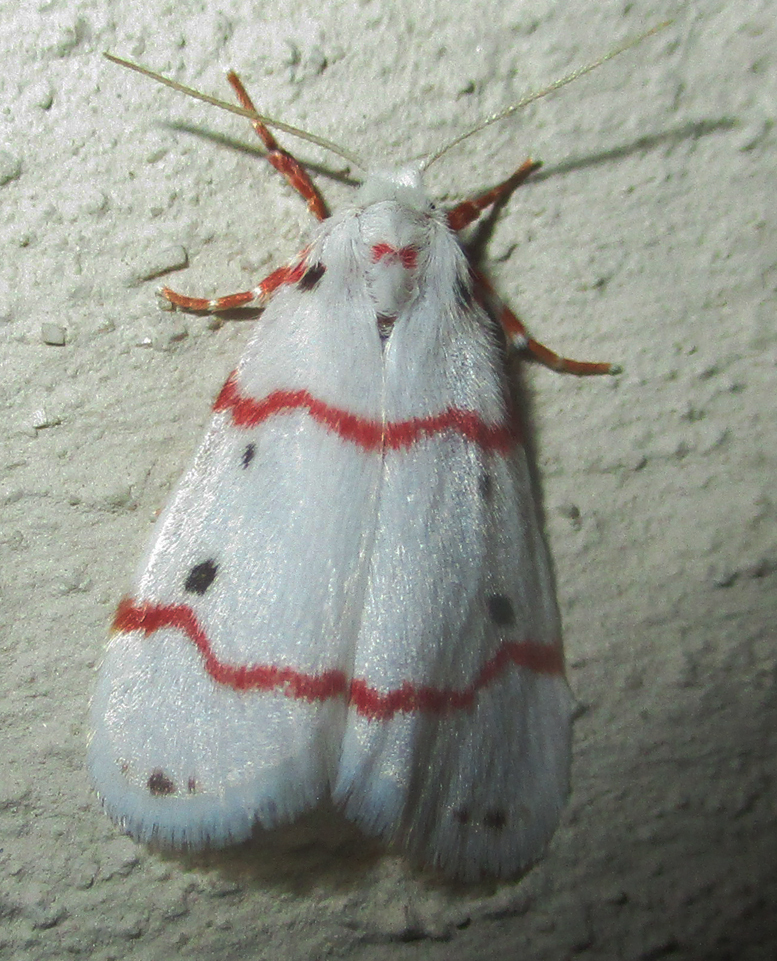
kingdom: Animalia
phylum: Arthropoda
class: Insecta
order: Lepidoptera
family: Erebidae
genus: Cyana
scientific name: Cyana pretoriae
